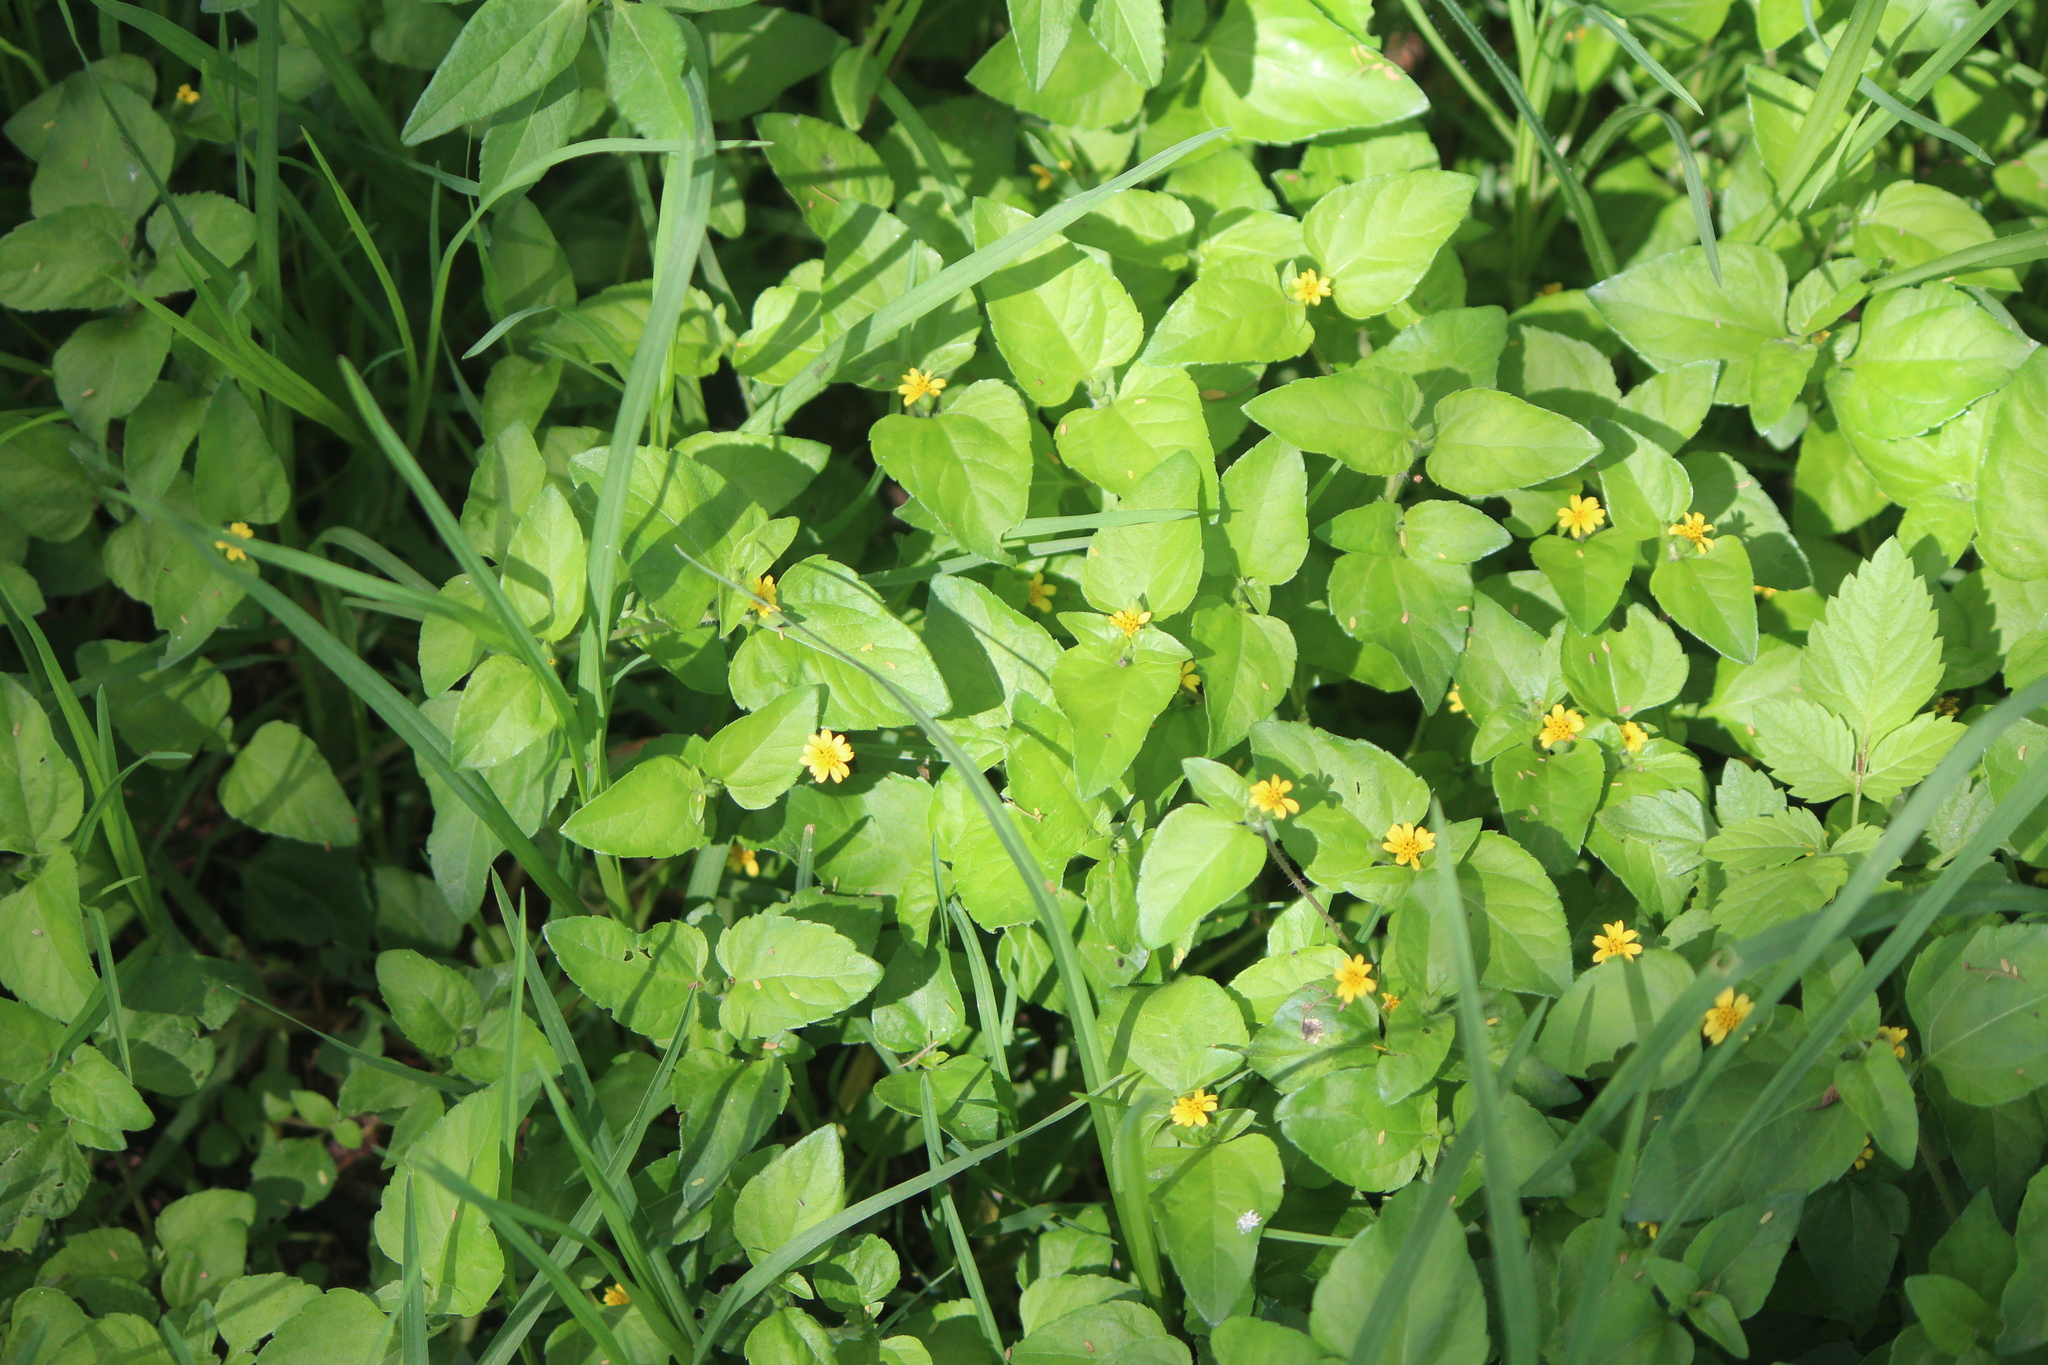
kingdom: Plantae
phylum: Tracheophyta
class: Magnoliopsida
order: Asterales
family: Asteraceae
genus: Calyptocarpus
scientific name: Calyptocarpus vialis
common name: Straggler daisy
